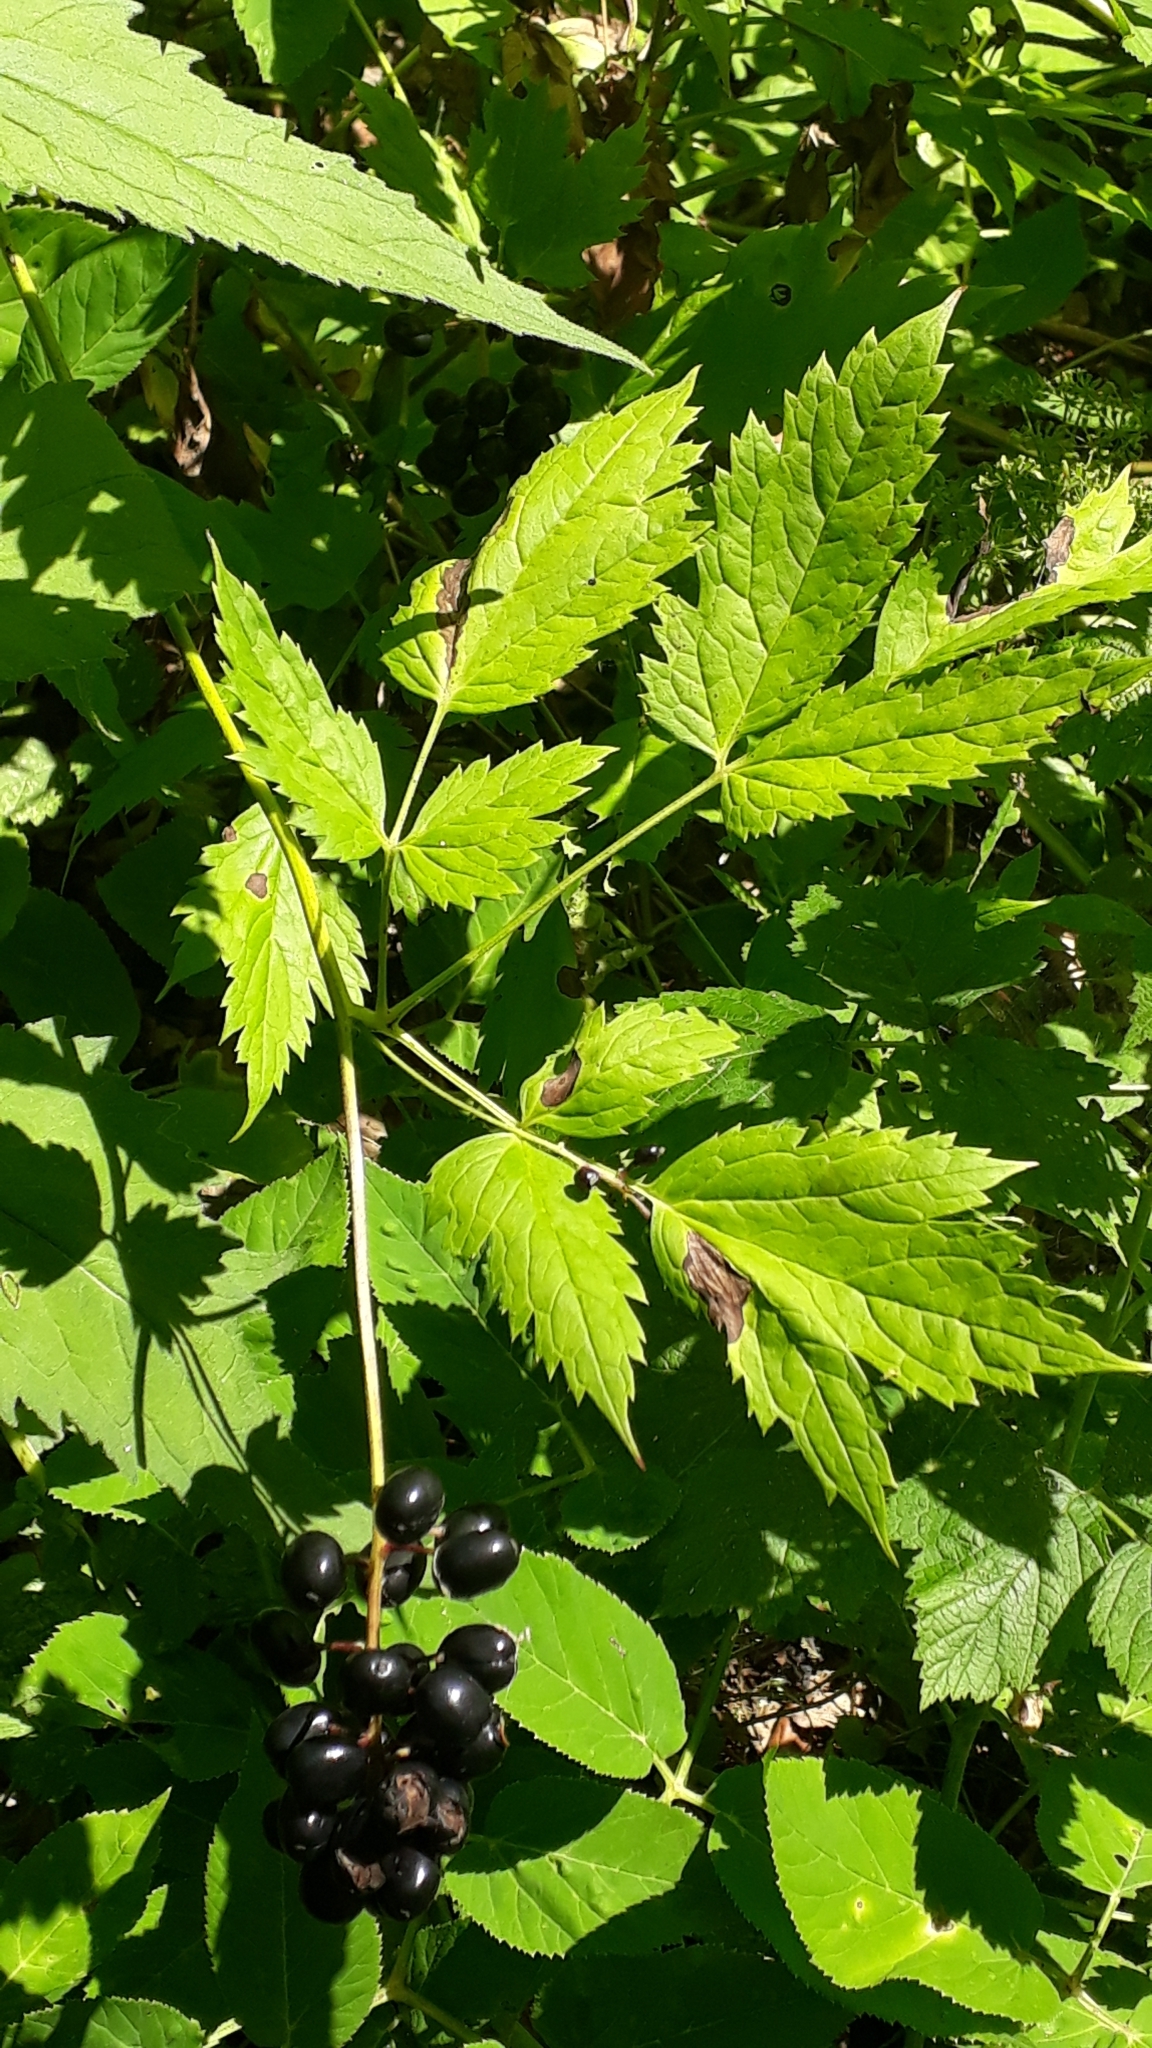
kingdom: Plantae
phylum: Tracheophyta
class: Magnoliopsida
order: Ranunculales
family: Ranunculaceae
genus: Actaea
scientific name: Actaea spicata
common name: Baneberry
